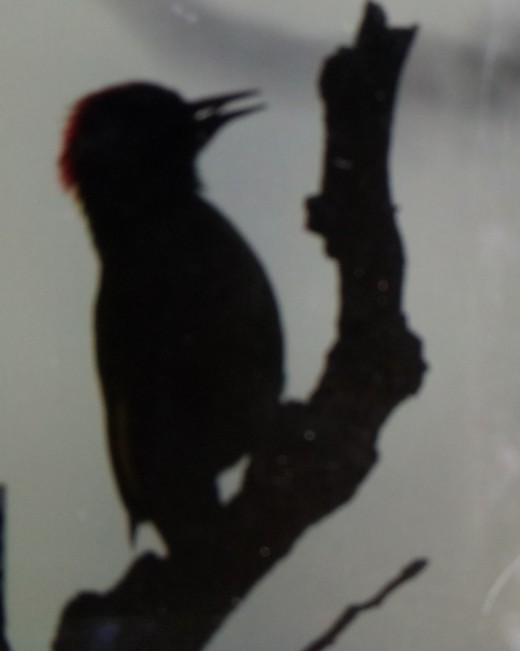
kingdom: Animalia
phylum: Chordata
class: Aves
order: Piciformes
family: Picidae
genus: Picus
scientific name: Picus vaillantii
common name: Levaillant's woodpecker
